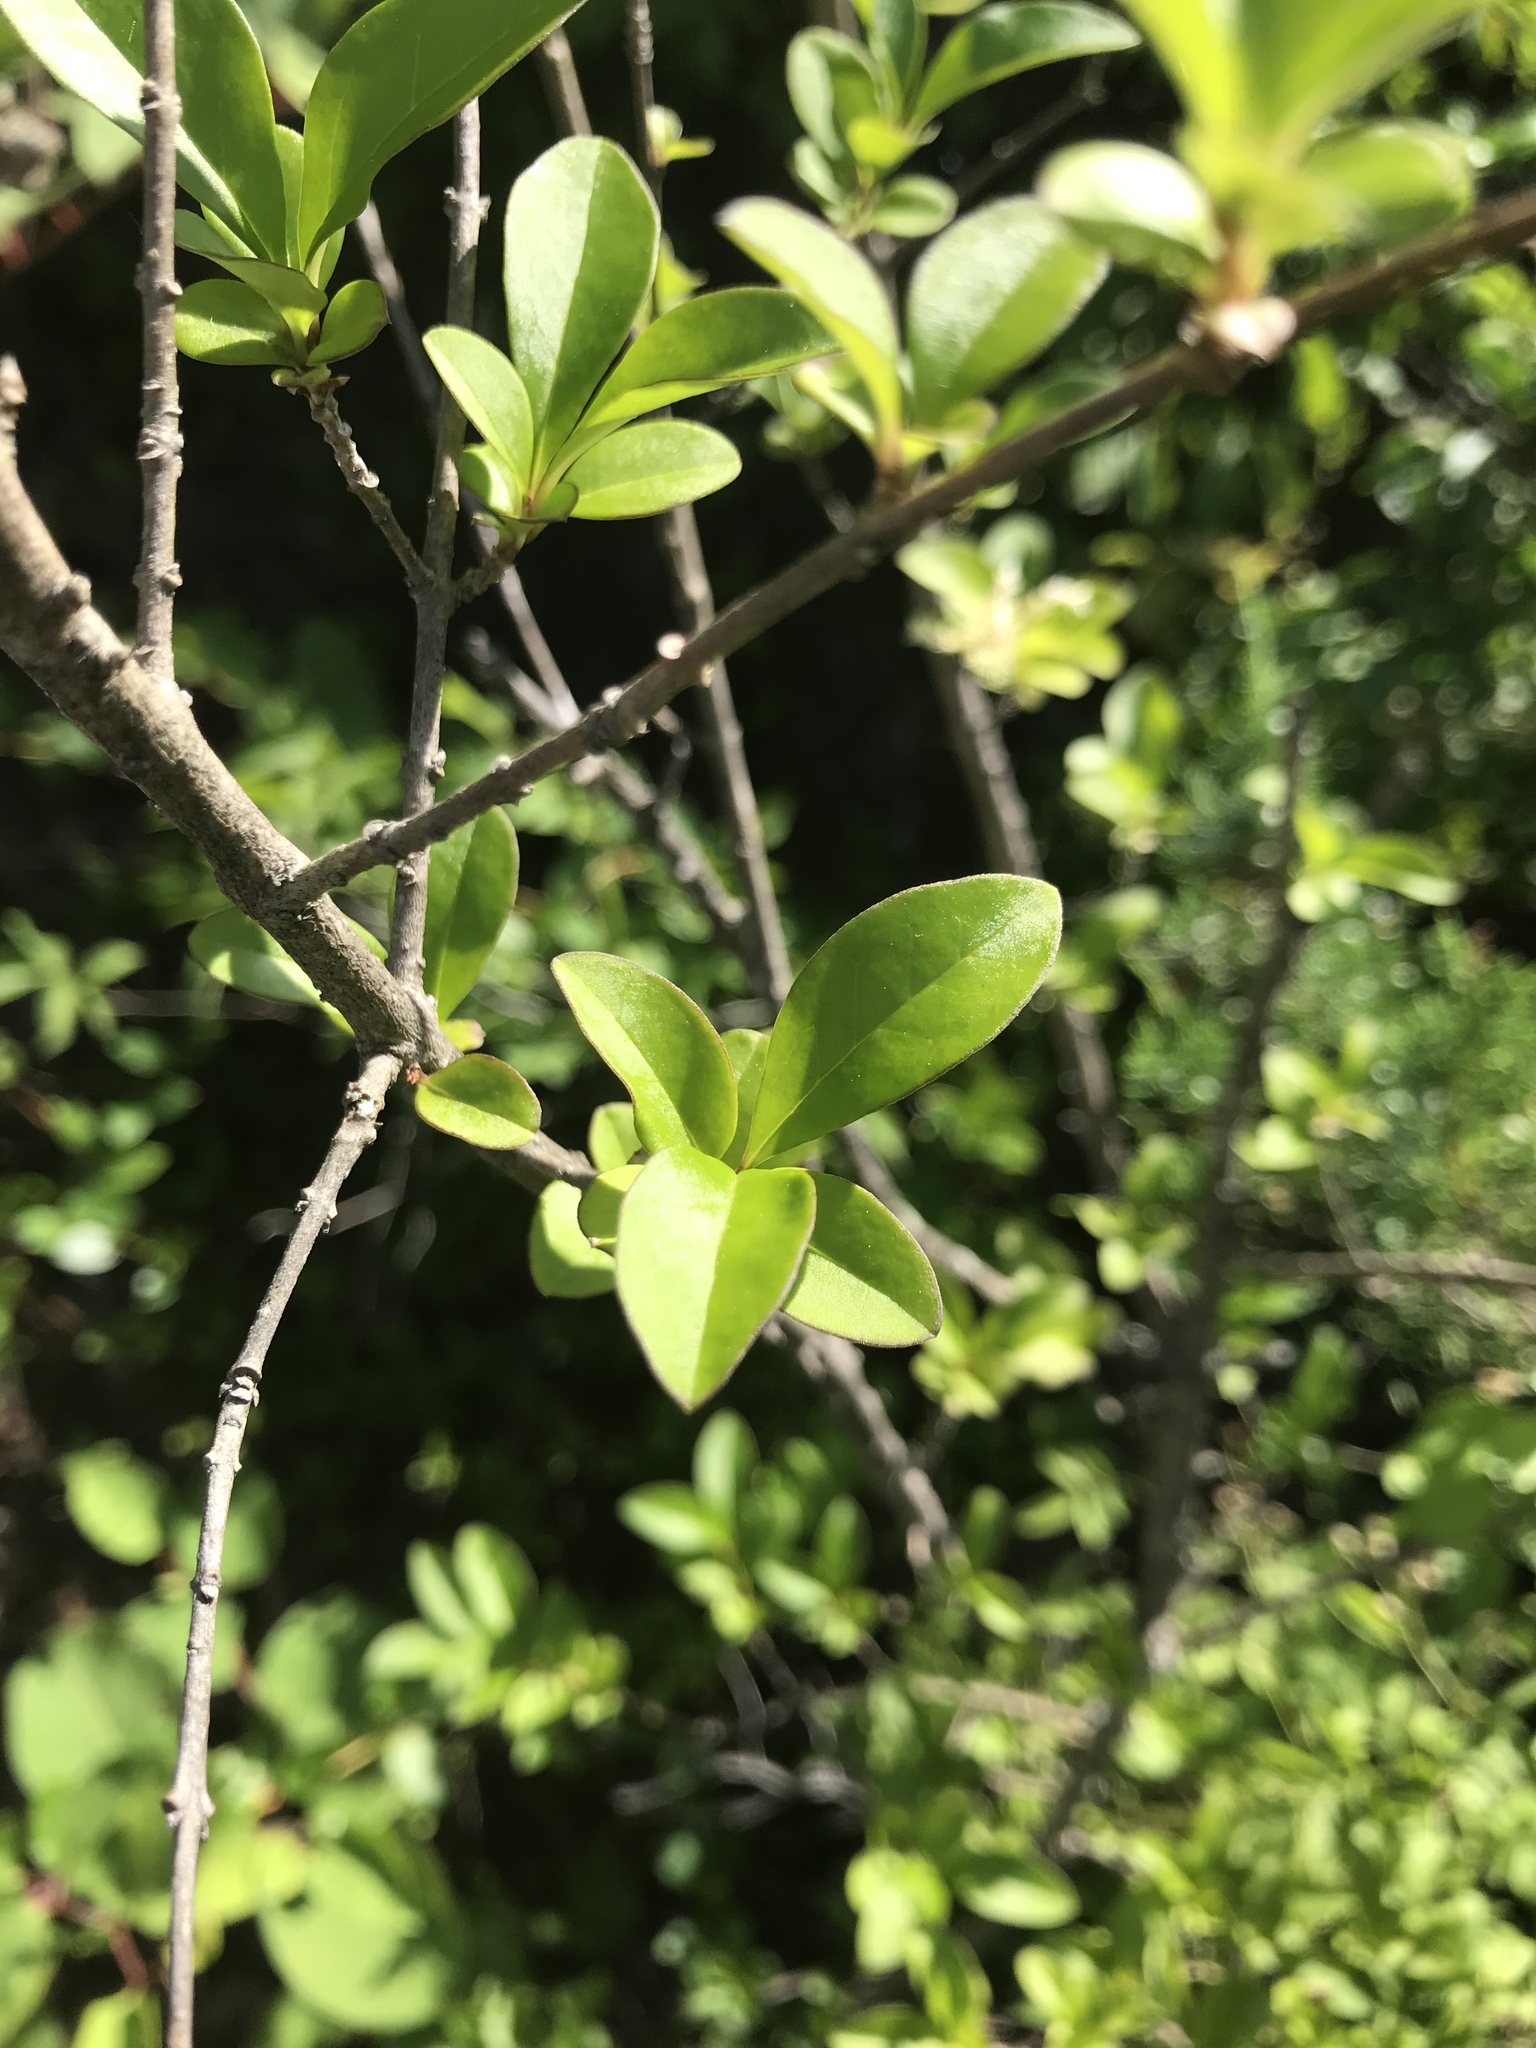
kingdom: Plantae
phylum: Tracheophyta
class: Magnoliopsida
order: Lamiales
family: Oleaceae
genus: Ligustrum
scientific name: Ligustrum obtusifolium
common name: Border privet
